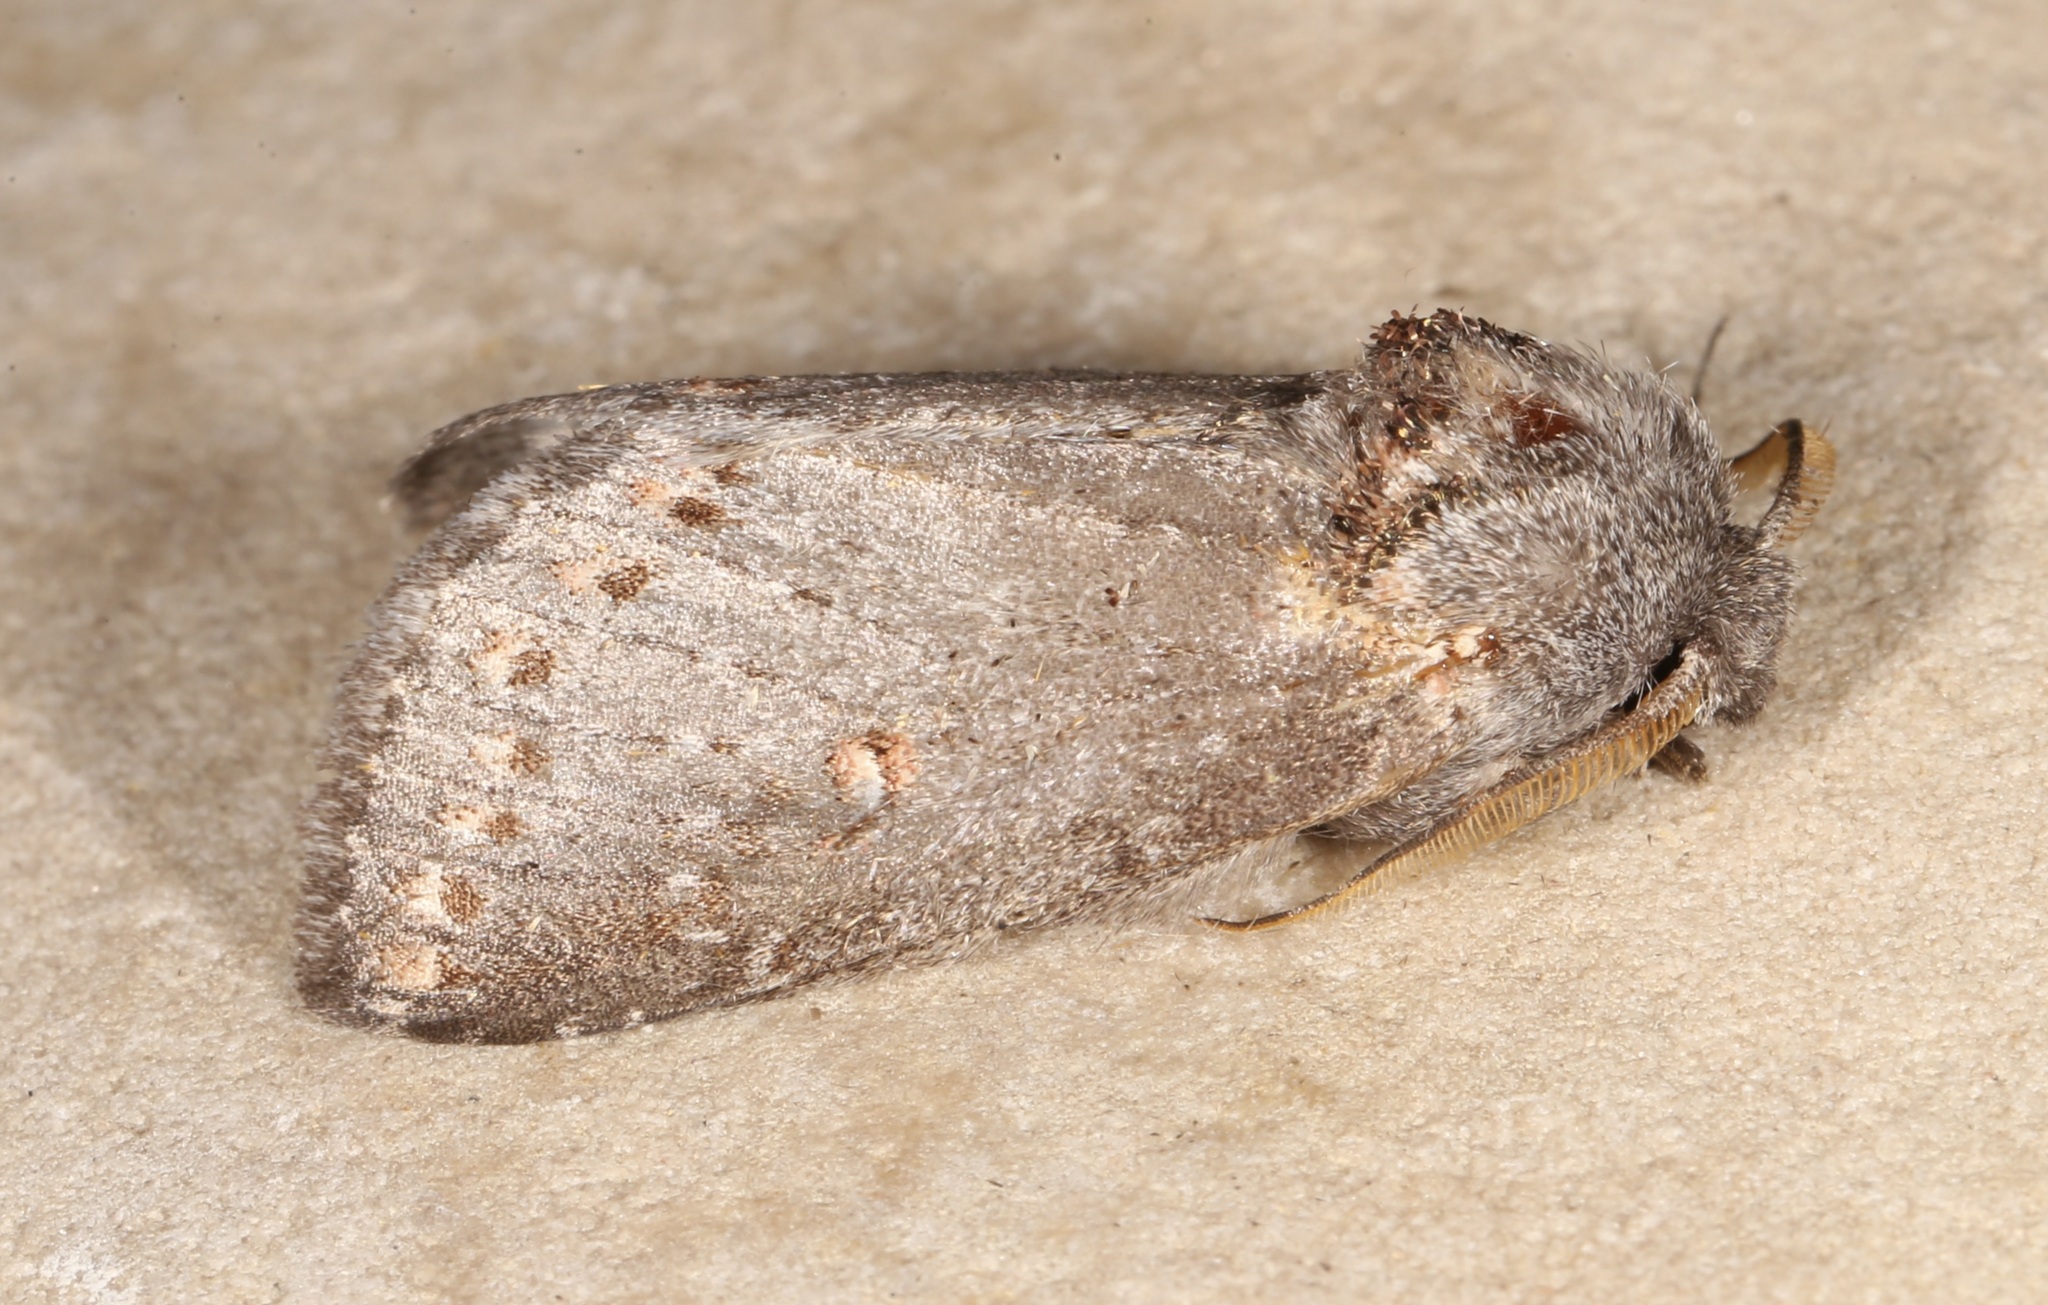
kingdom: Animalia
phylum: Arthropoda
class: Insecta
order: Lepidoptera
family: Notodontidae
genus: Theroa
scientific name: Theroa zethus
